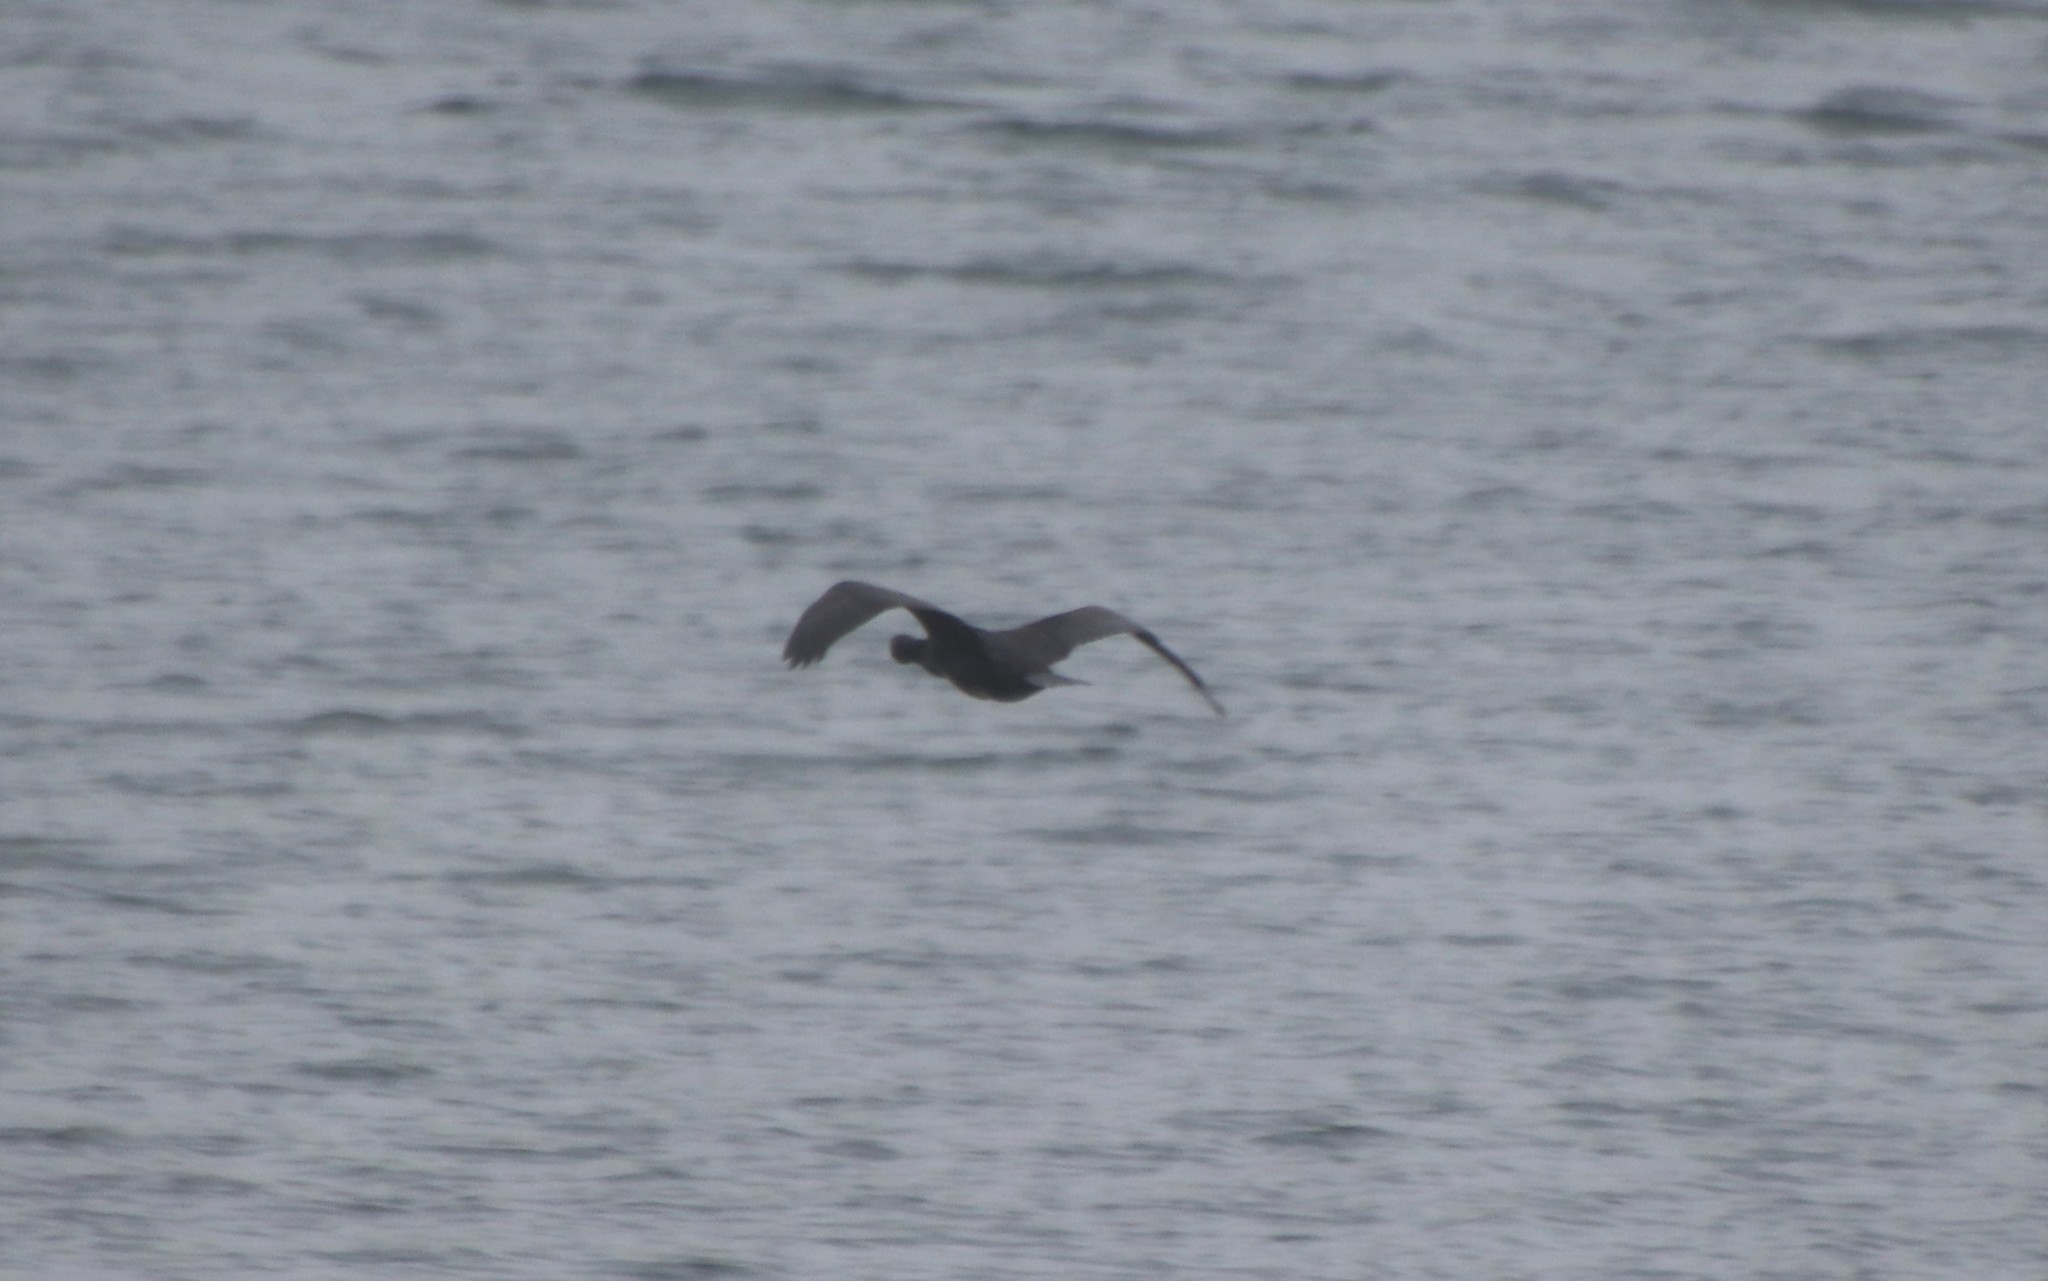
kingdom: Animalia
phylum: Chordata
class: Aves
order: Suliformes
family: Phalacrocoracidae
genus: Phalacrocorax
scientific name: Phalacrocorax carbo
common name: Great cormorant
